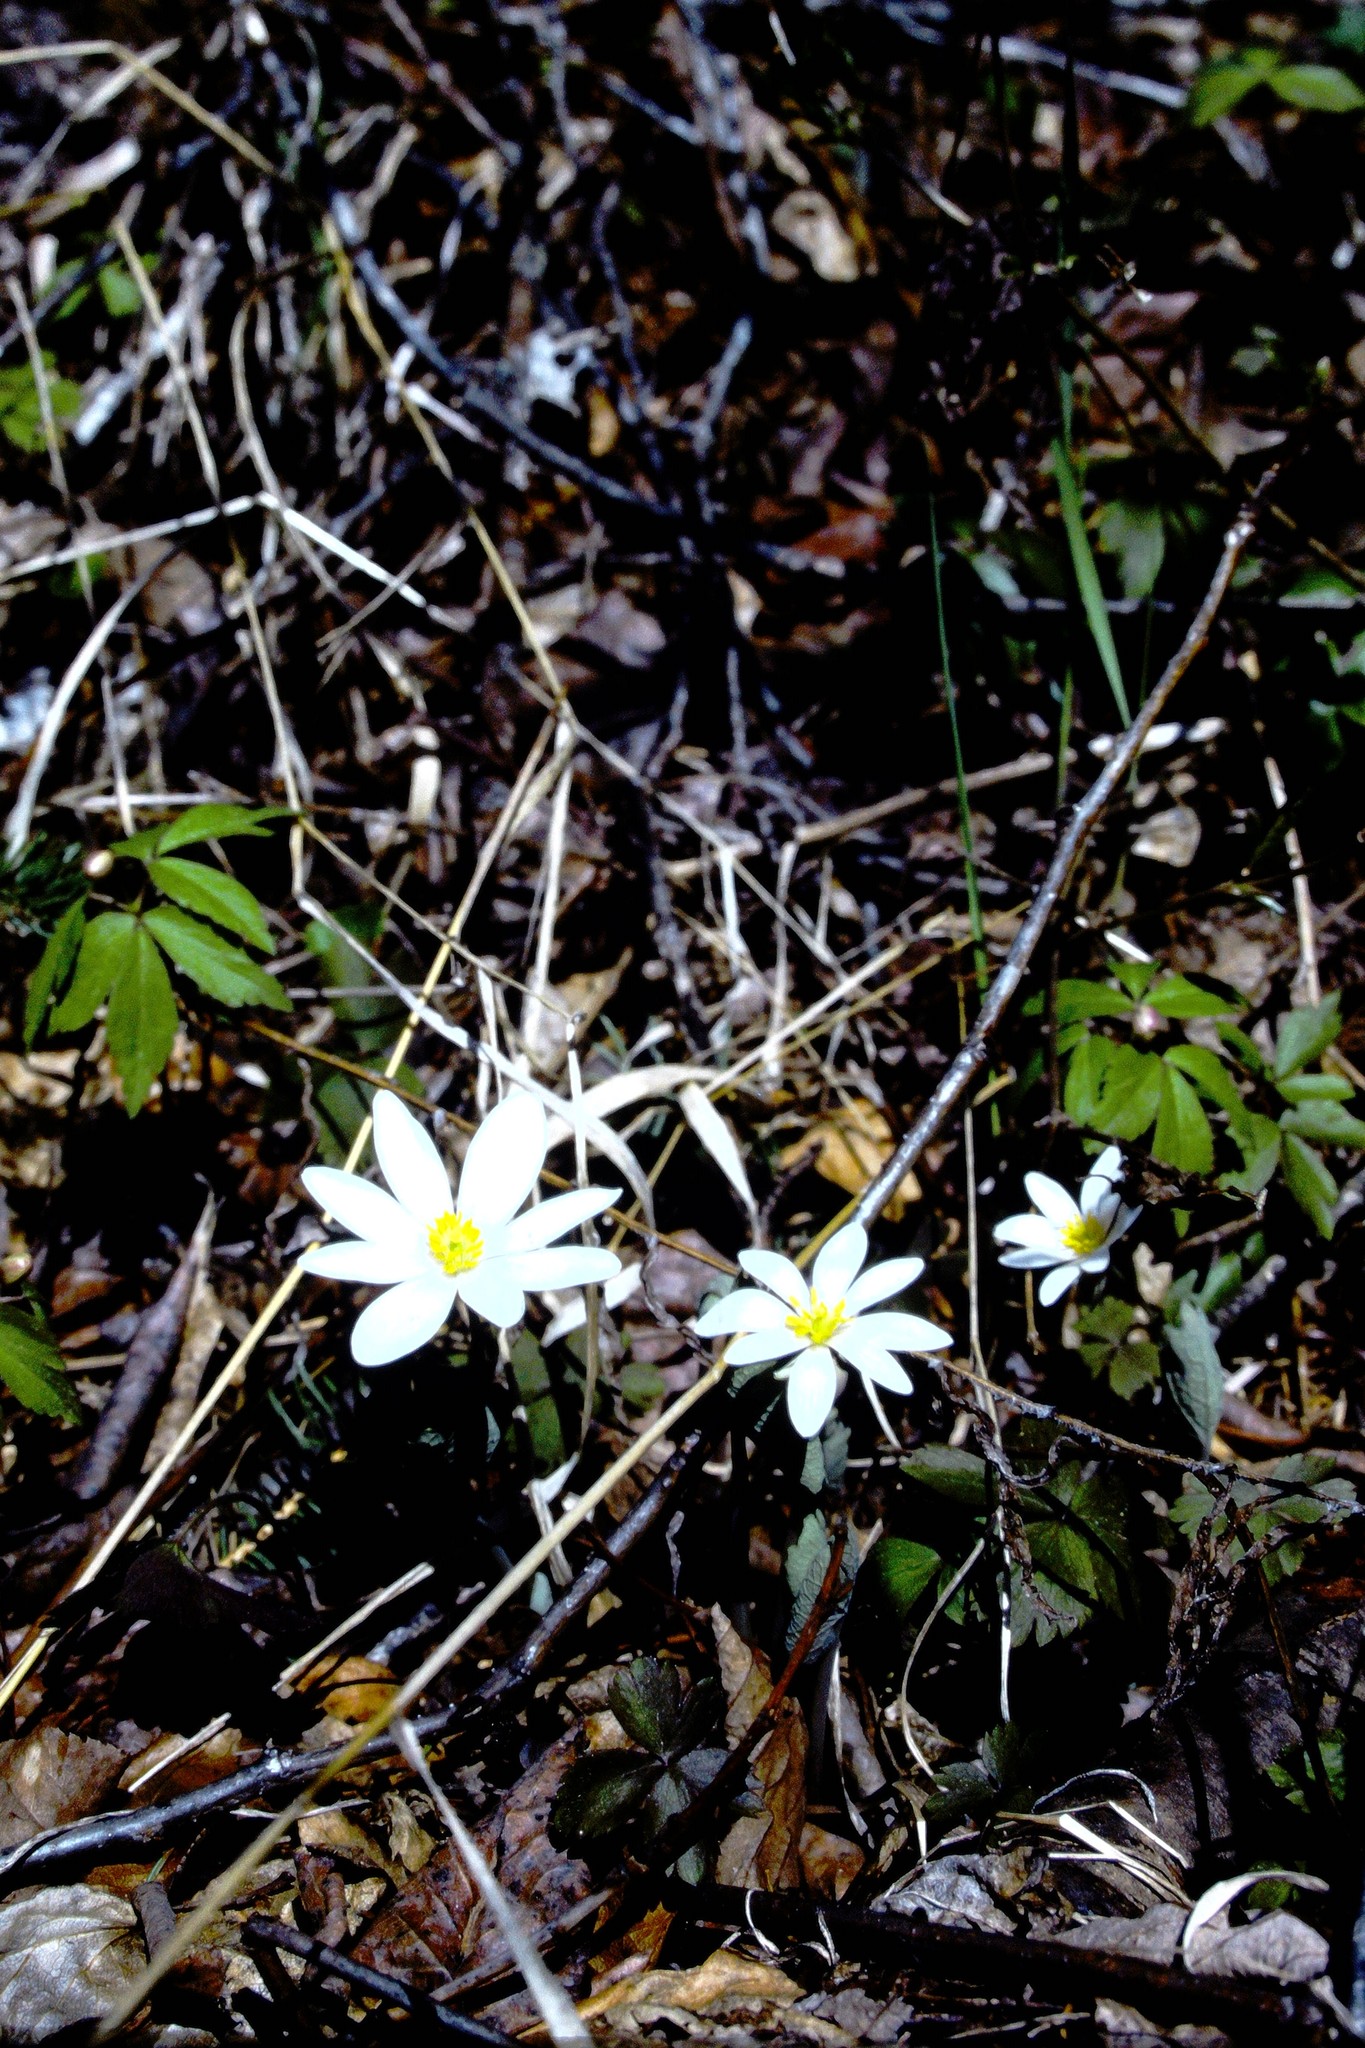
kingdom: Plantae
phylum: Tracheophyta
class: Magnoliopsida
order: Ranunculales
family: Papaveraceae
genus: Sanguinaria
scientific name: Sanguinaria canadensis
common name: Bloodroot
